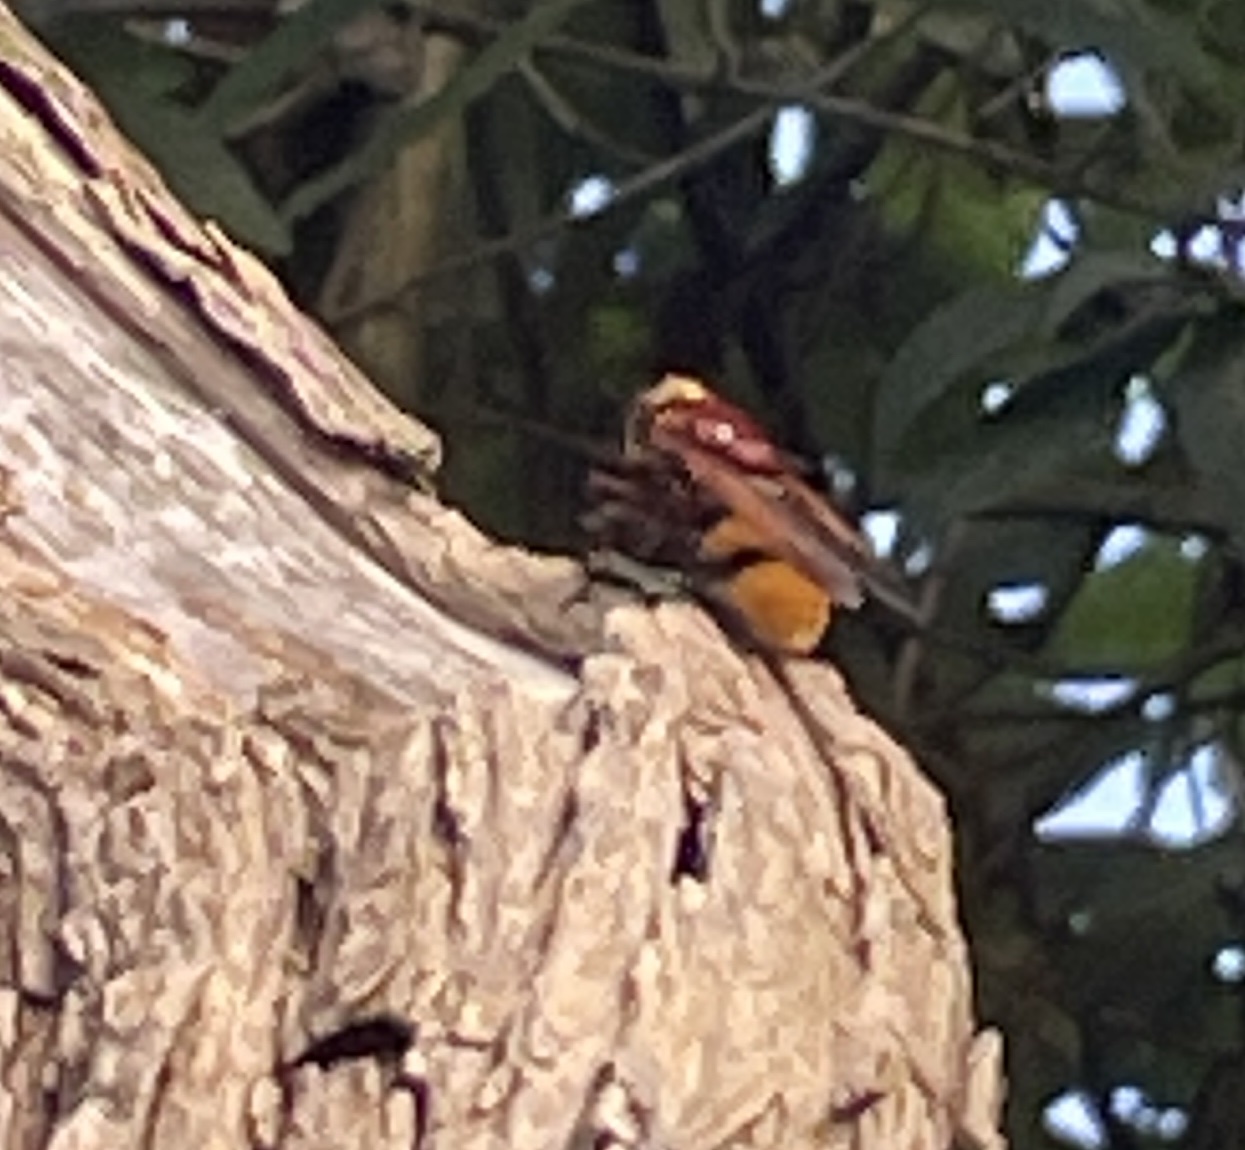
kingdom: Animalia
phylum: Arthropoda
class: Insecta
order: Diptera
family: Syrphidae
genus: Volucella
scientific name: Volucella zonaria
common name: Hornet hoverfly
